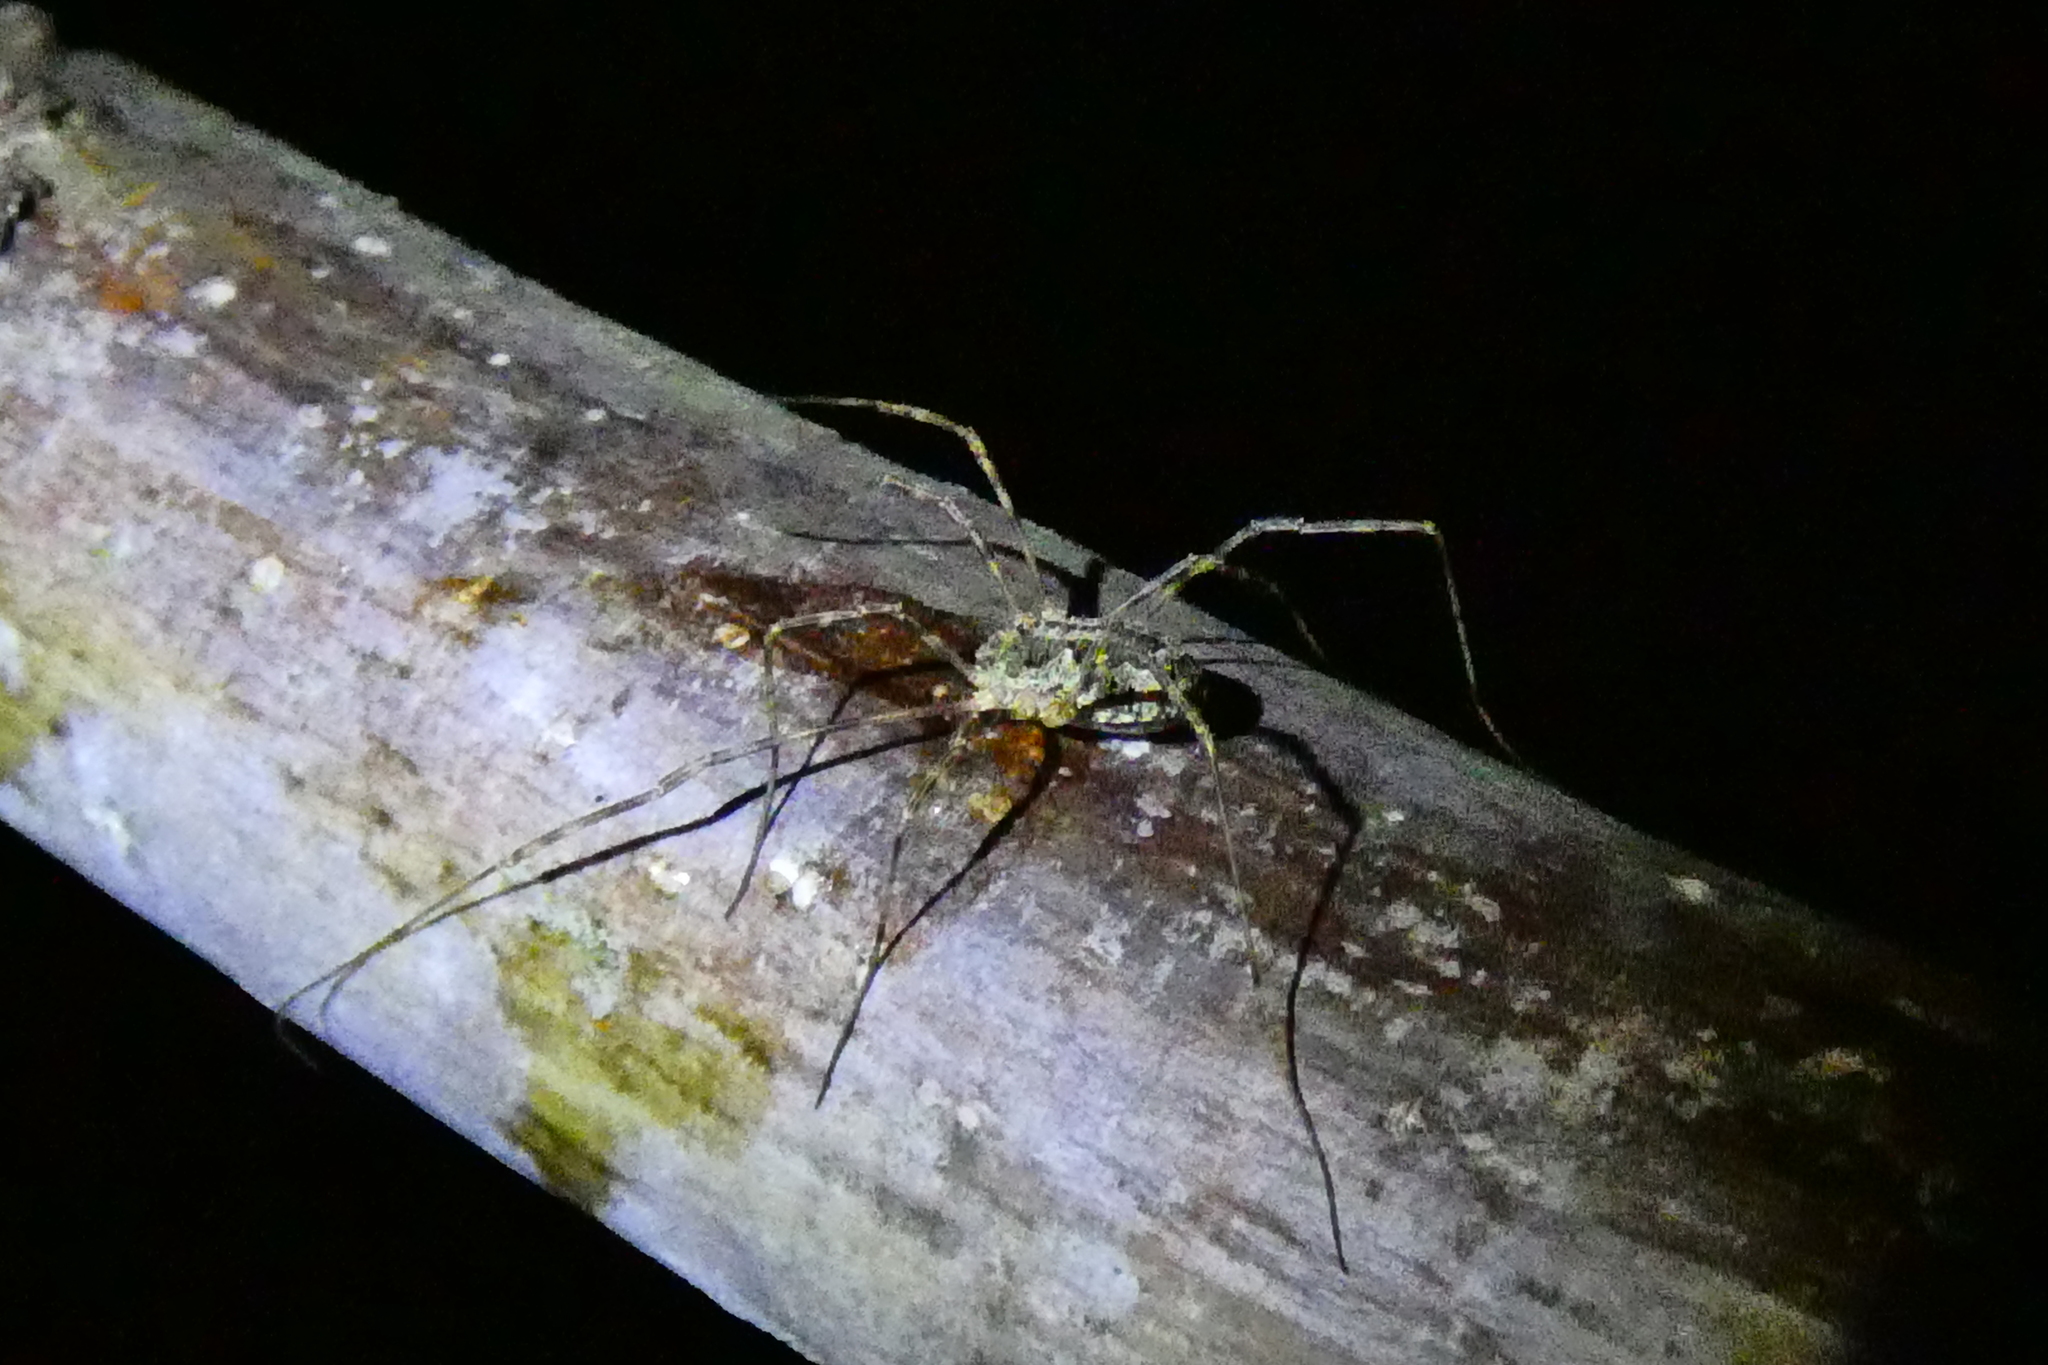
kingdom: Animalia
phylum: Arthropoda
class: Arachnida
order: Opiliones
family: Phalangiidae
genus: Lacinius
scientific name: Lacinius dentiger
